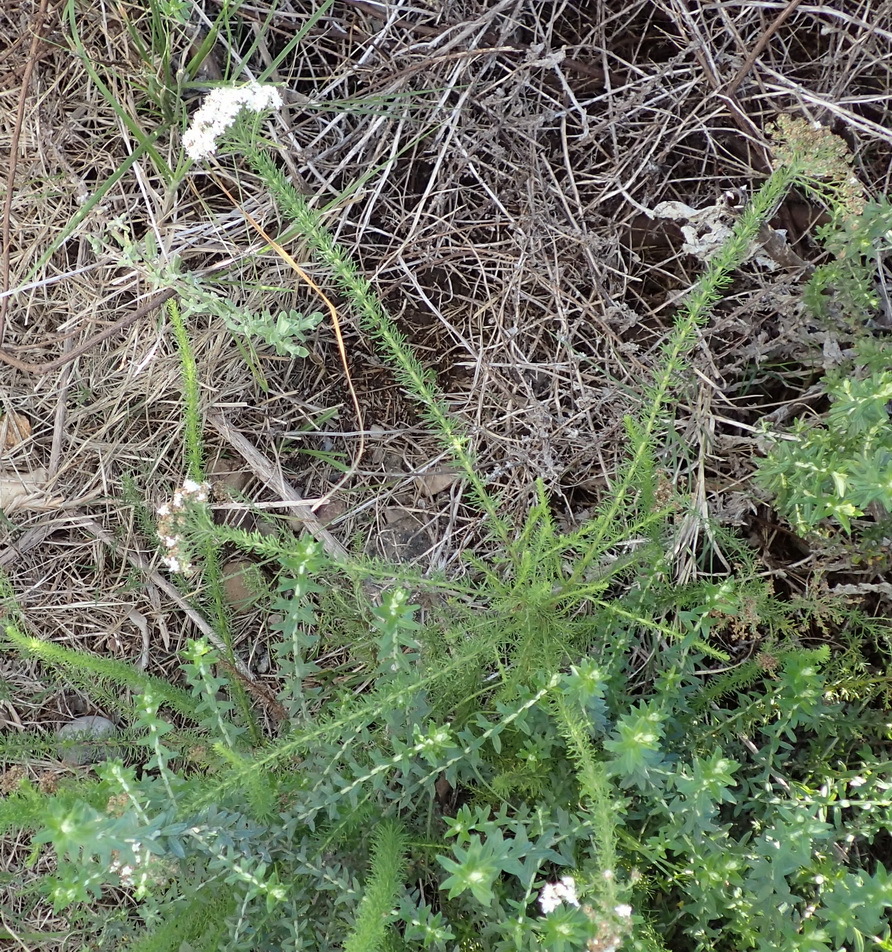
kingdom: Plantae
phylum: Tracheophyta
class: Magnoliopsida
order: Lamiales
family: Scrophulariaceae
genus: Selago
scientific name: Selago corymbosa
